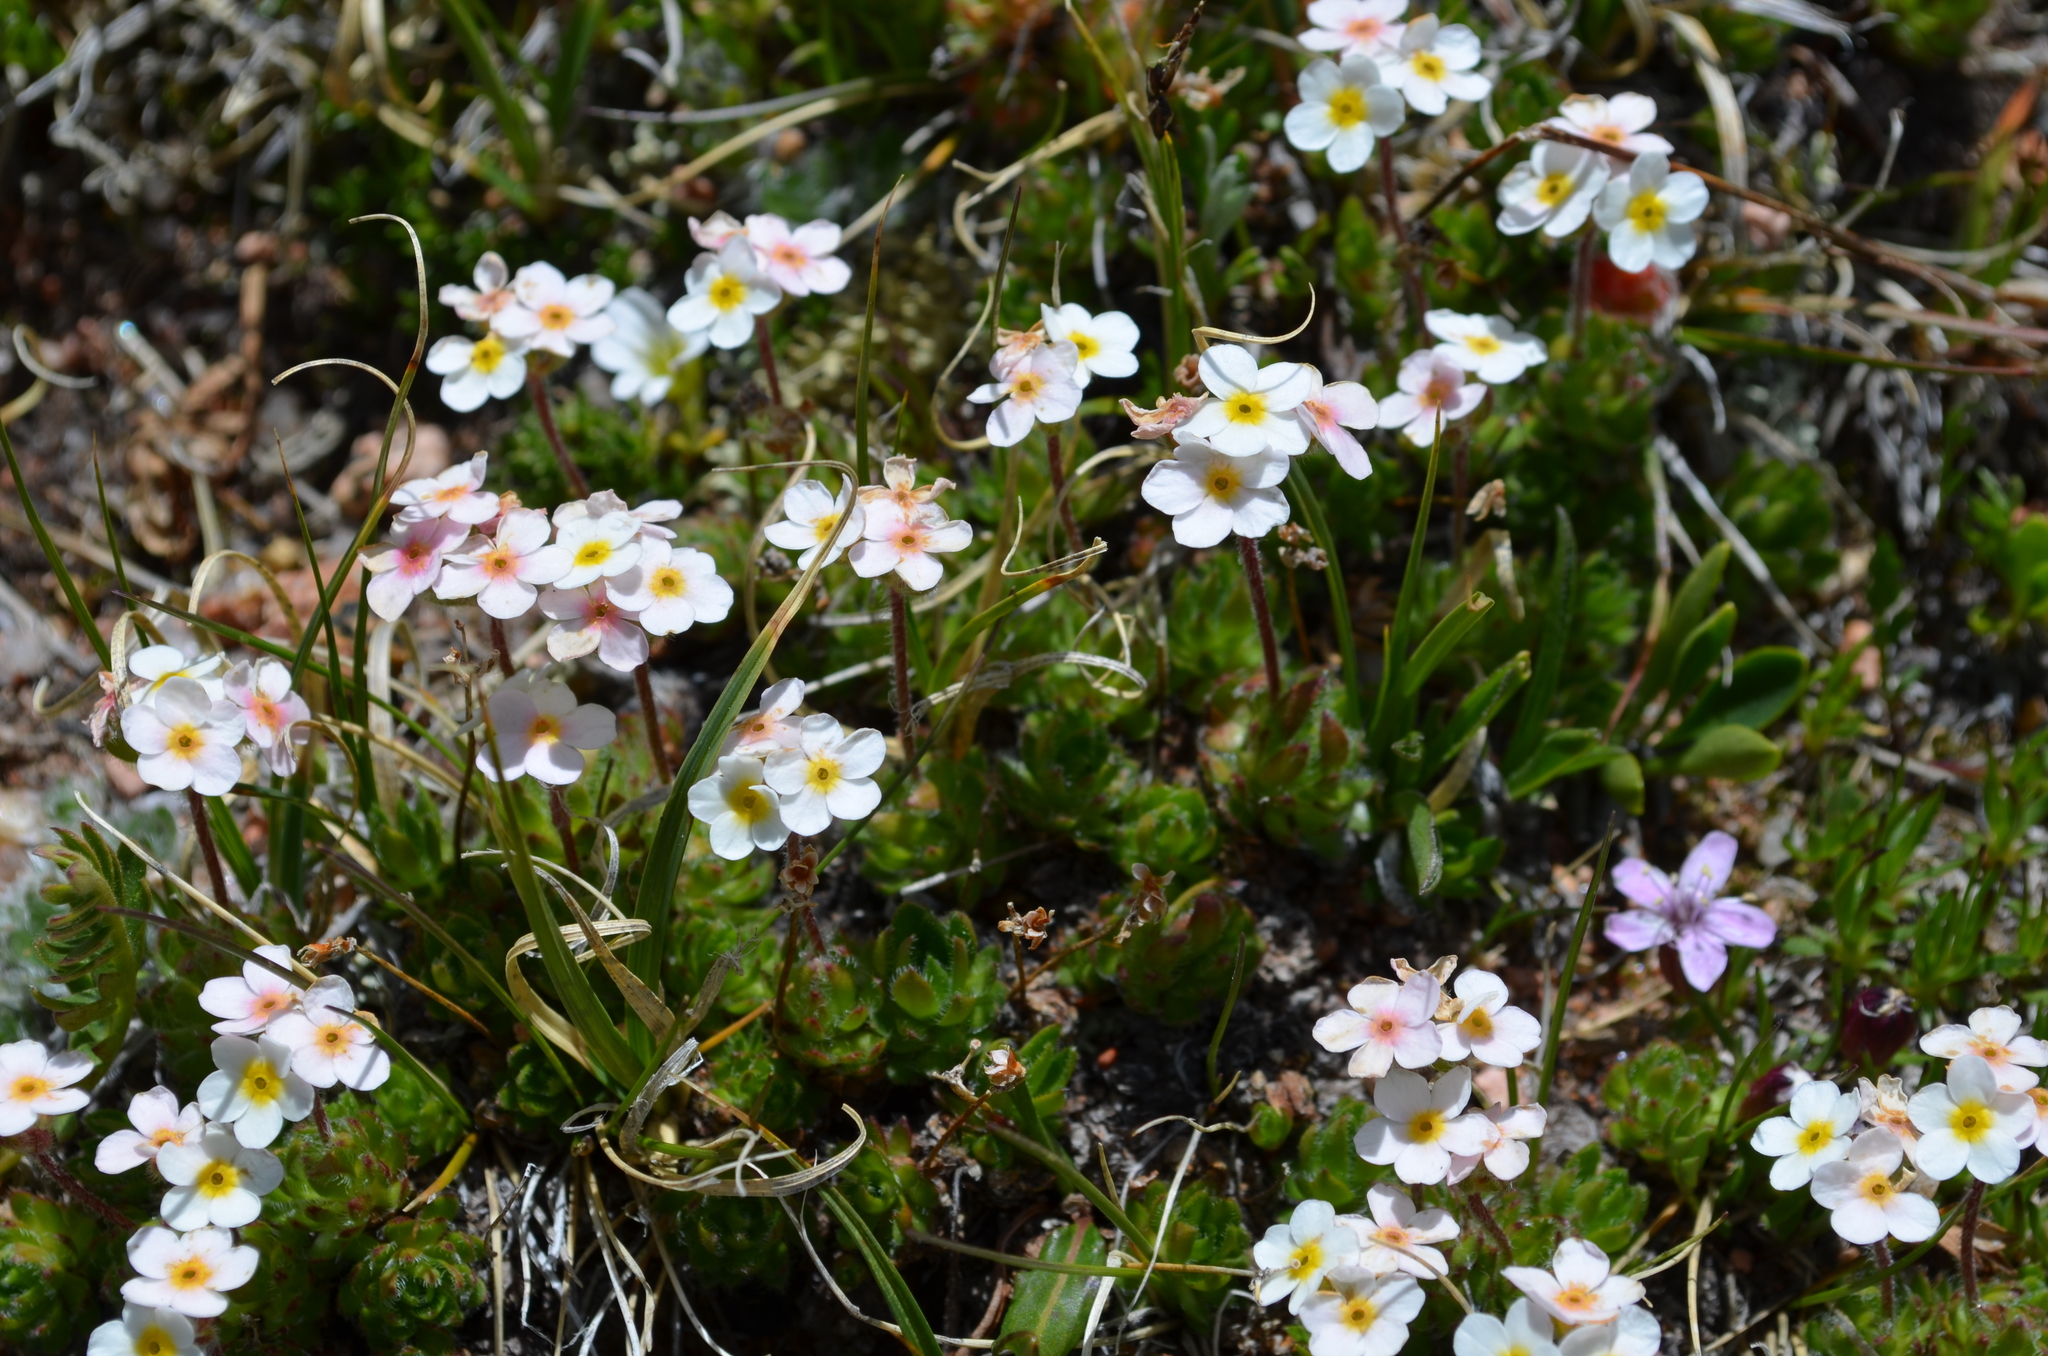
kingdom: Plantae
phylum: Tracheophyta
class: Magnoliopsida
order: Ericales
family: Primulaceae
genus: Androsace
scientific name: Androsace chamaejasme
